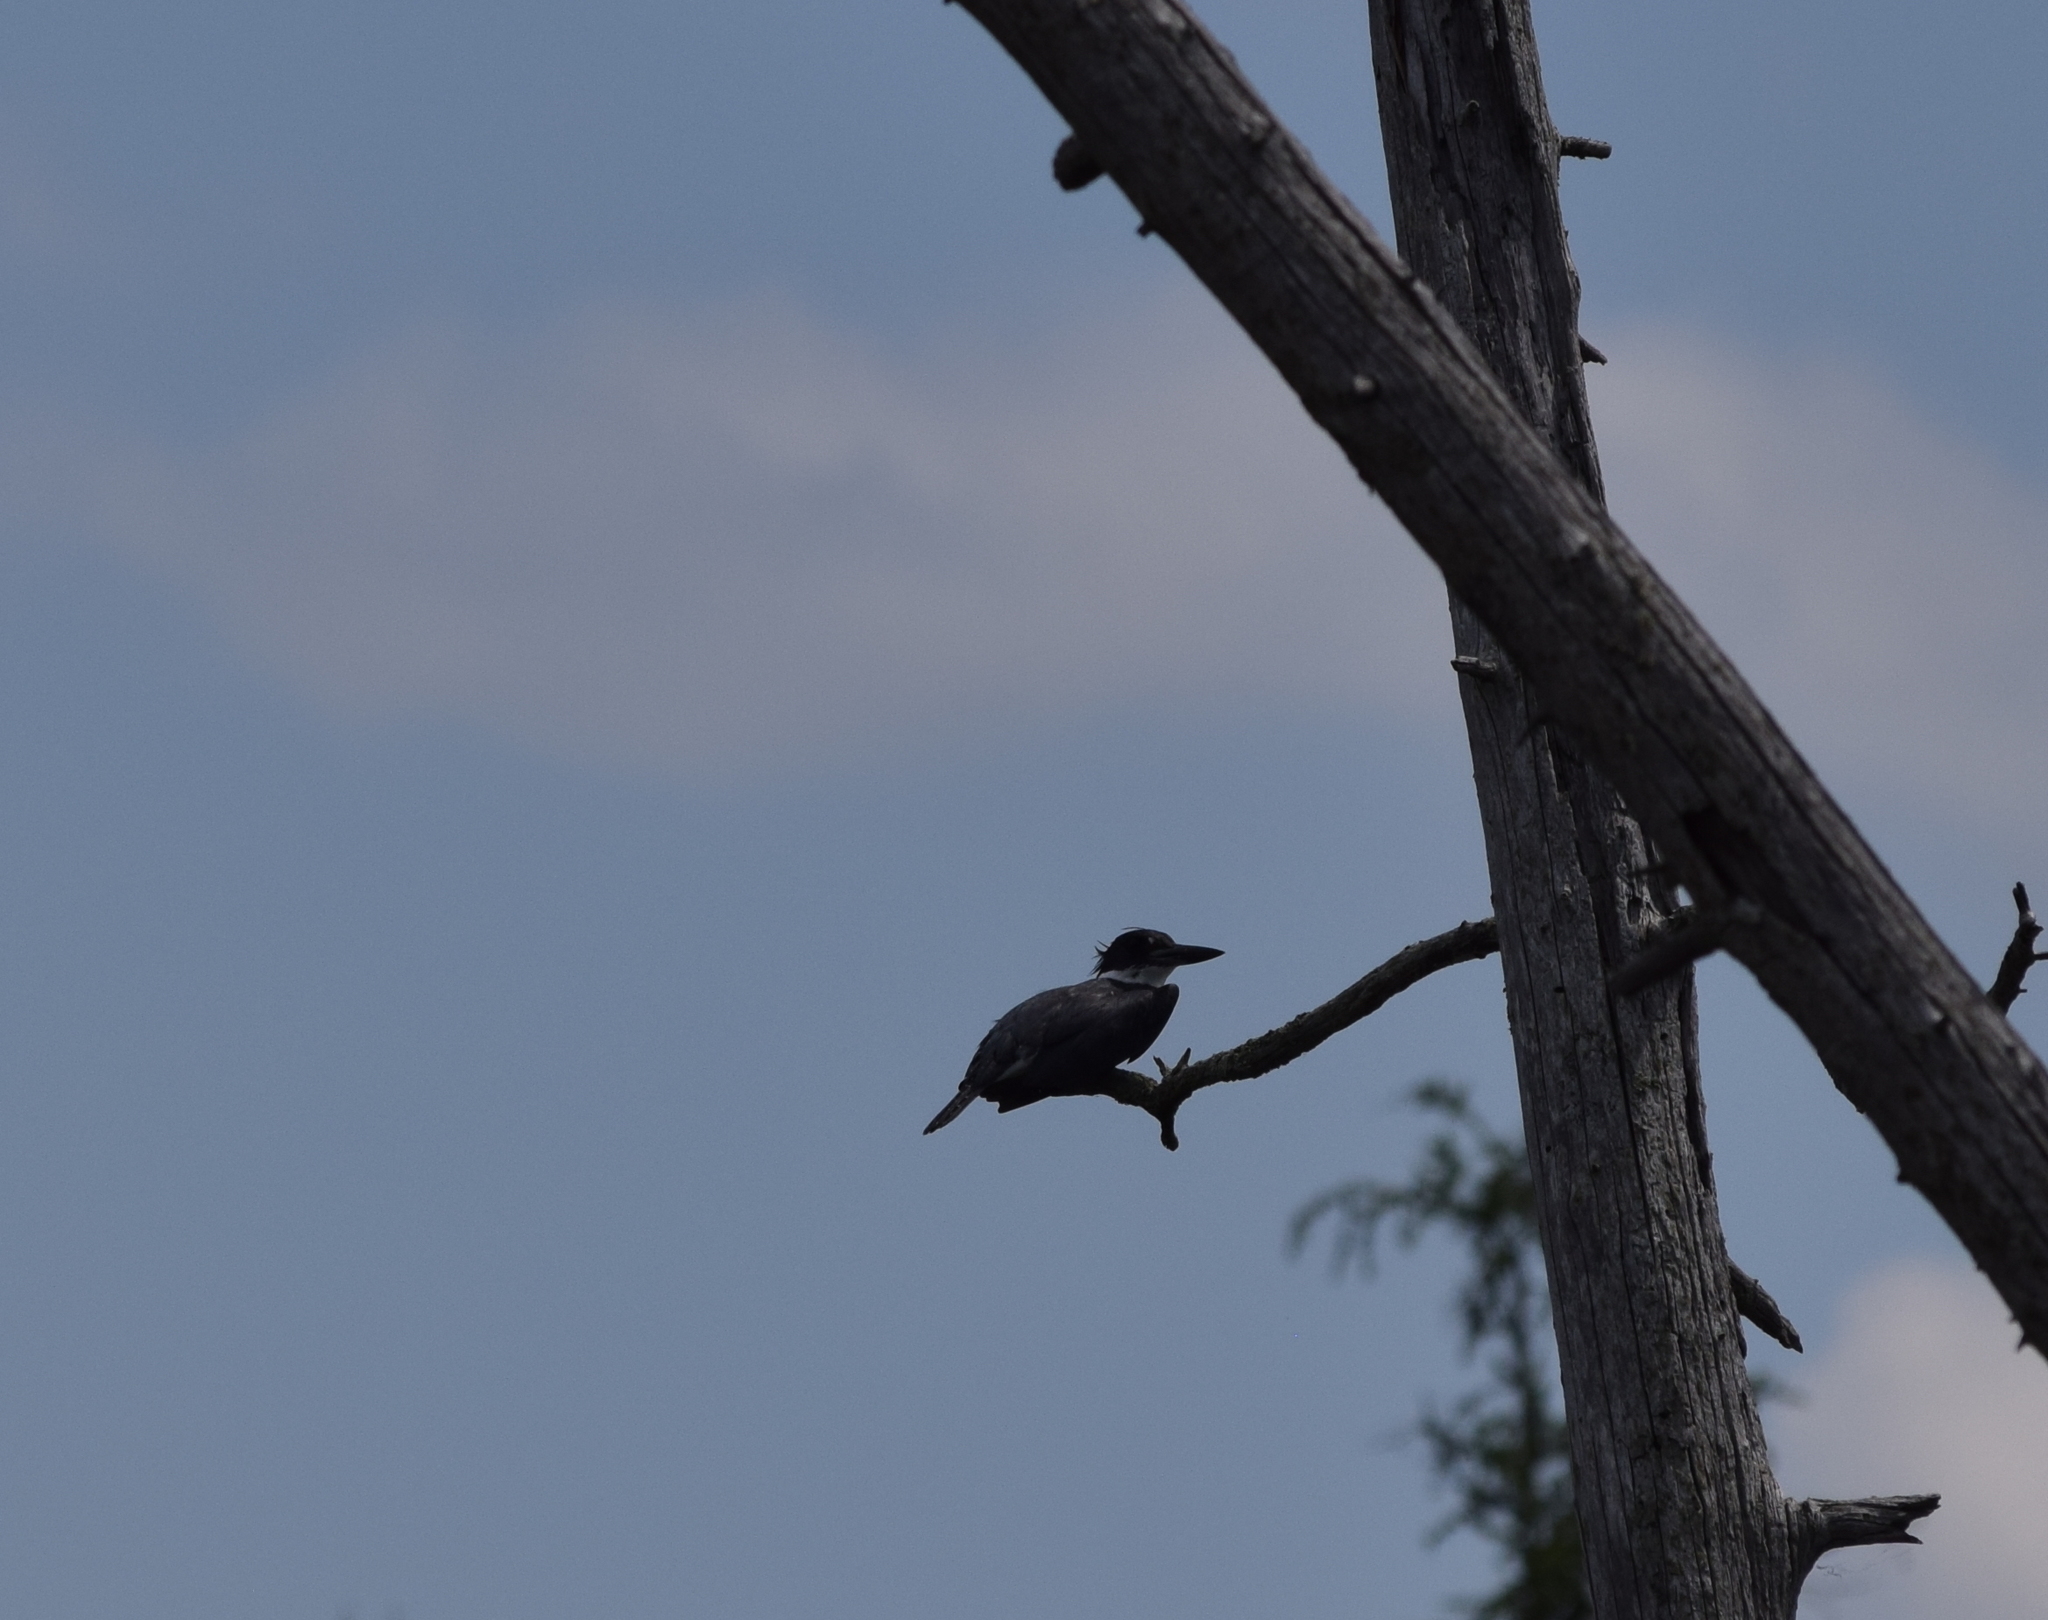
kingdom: Animalia
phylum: Chordata
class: Aves
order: Coraciiformes
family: Alcedinidae
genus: Megaceryle
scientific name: Megaceryle alcyon
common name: Belted kingfisher
